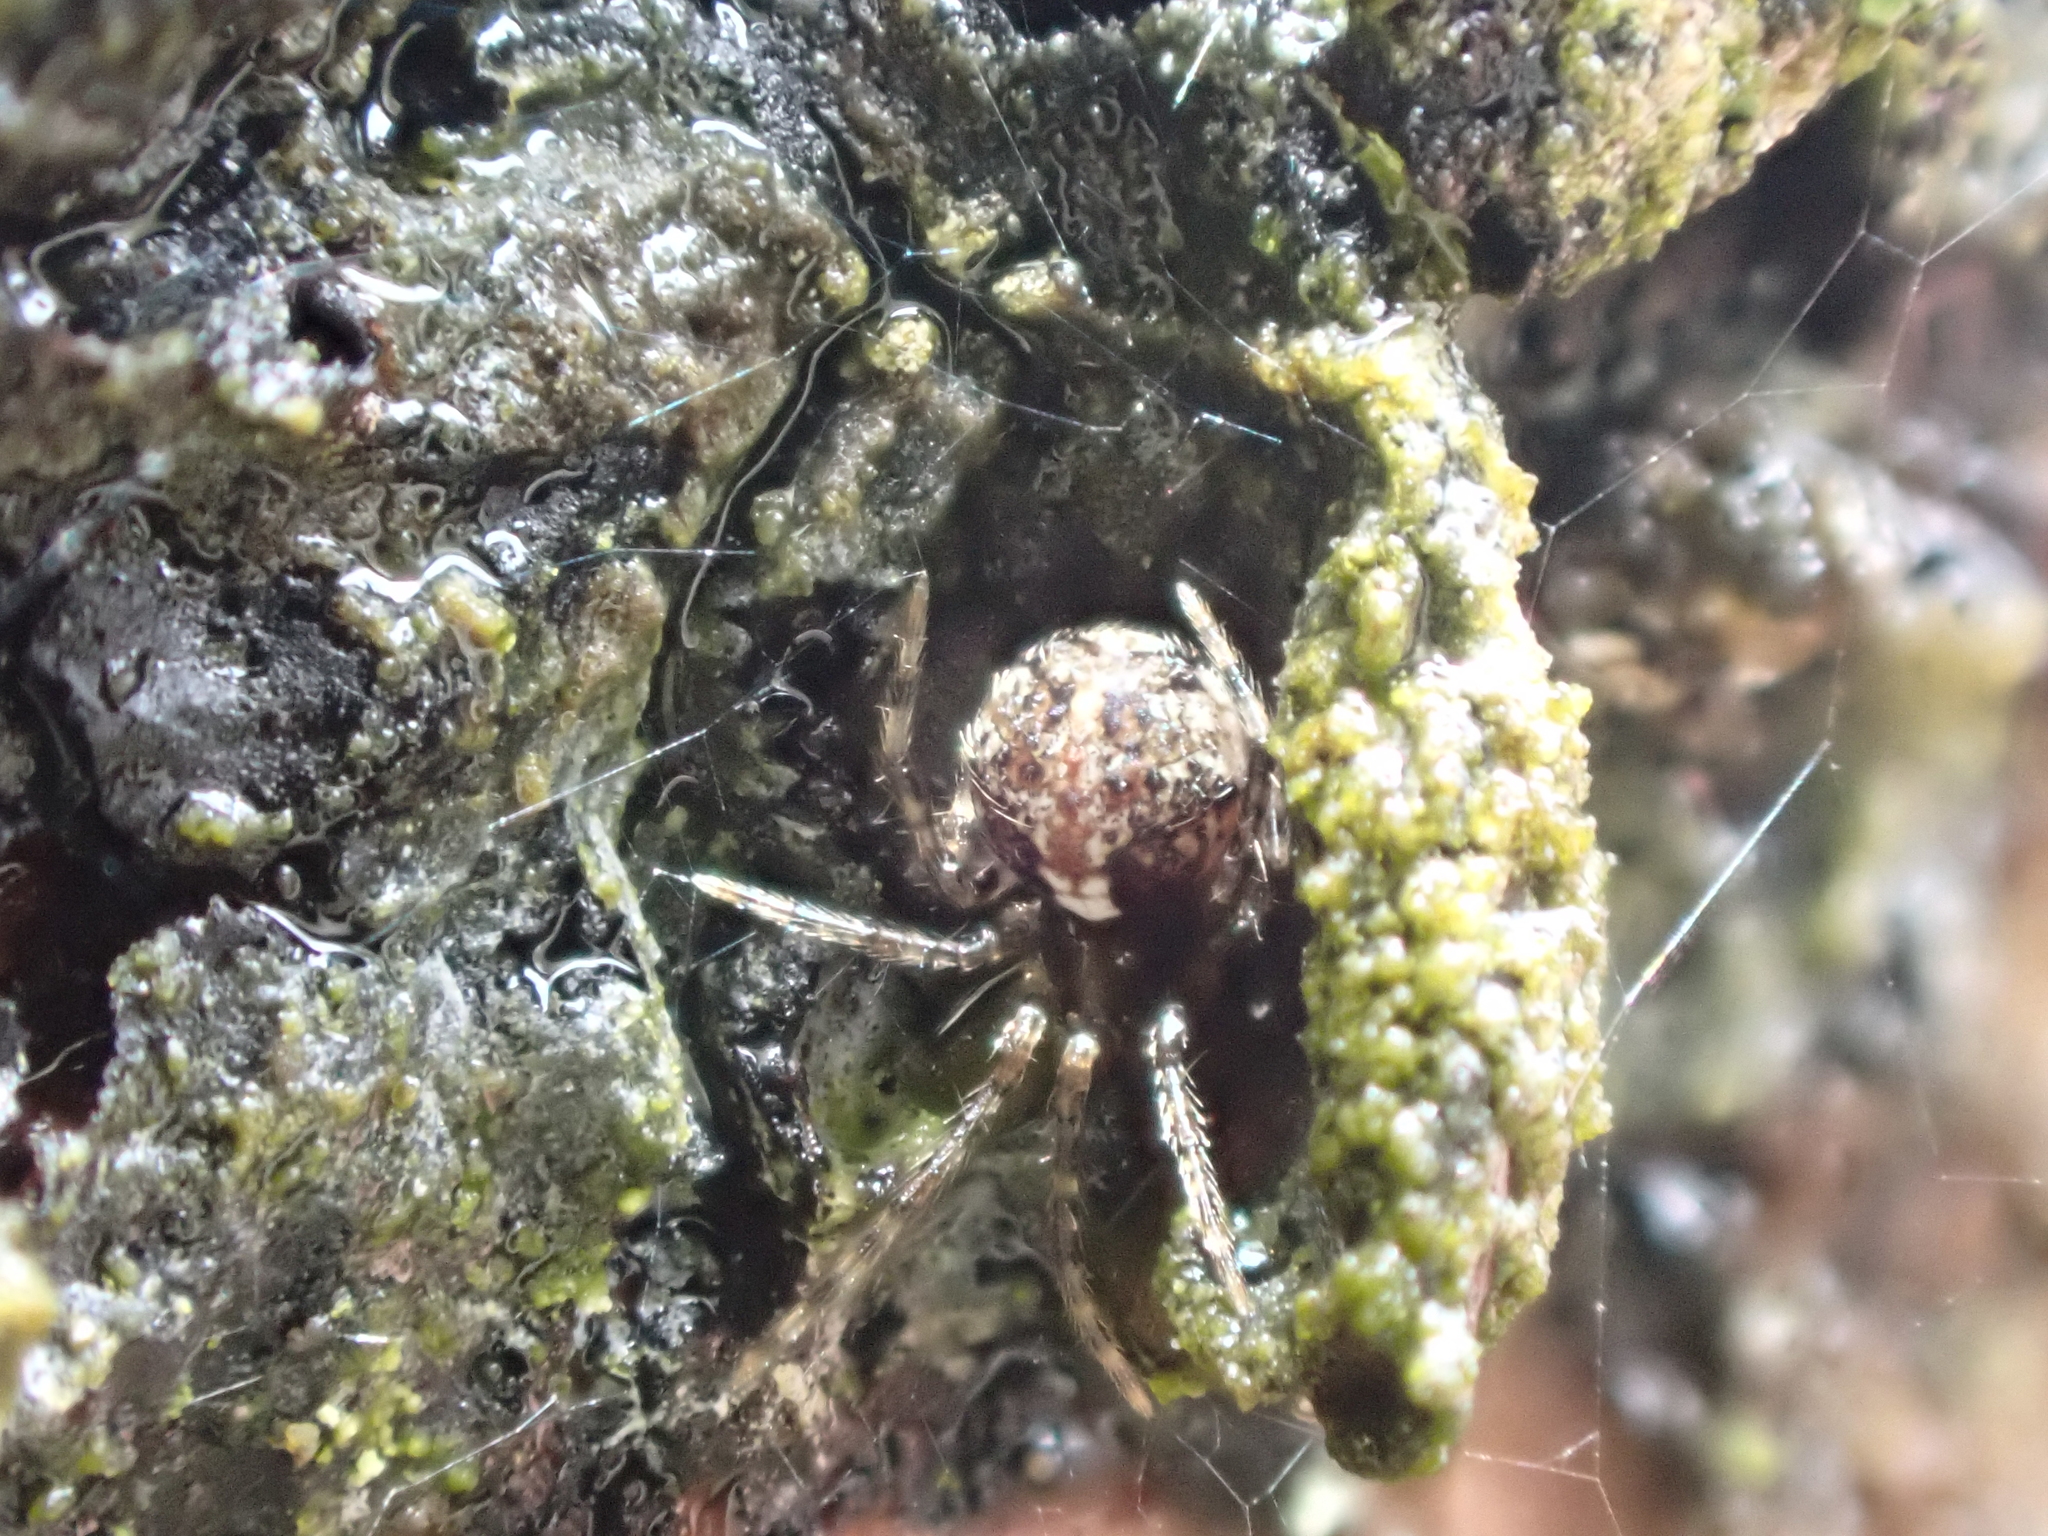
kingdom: Animalia
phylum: Arthropoda
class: Arachnida
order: Araneae
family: Theridiidae
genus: Yunohamella
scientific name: Yunohamella lyrica
